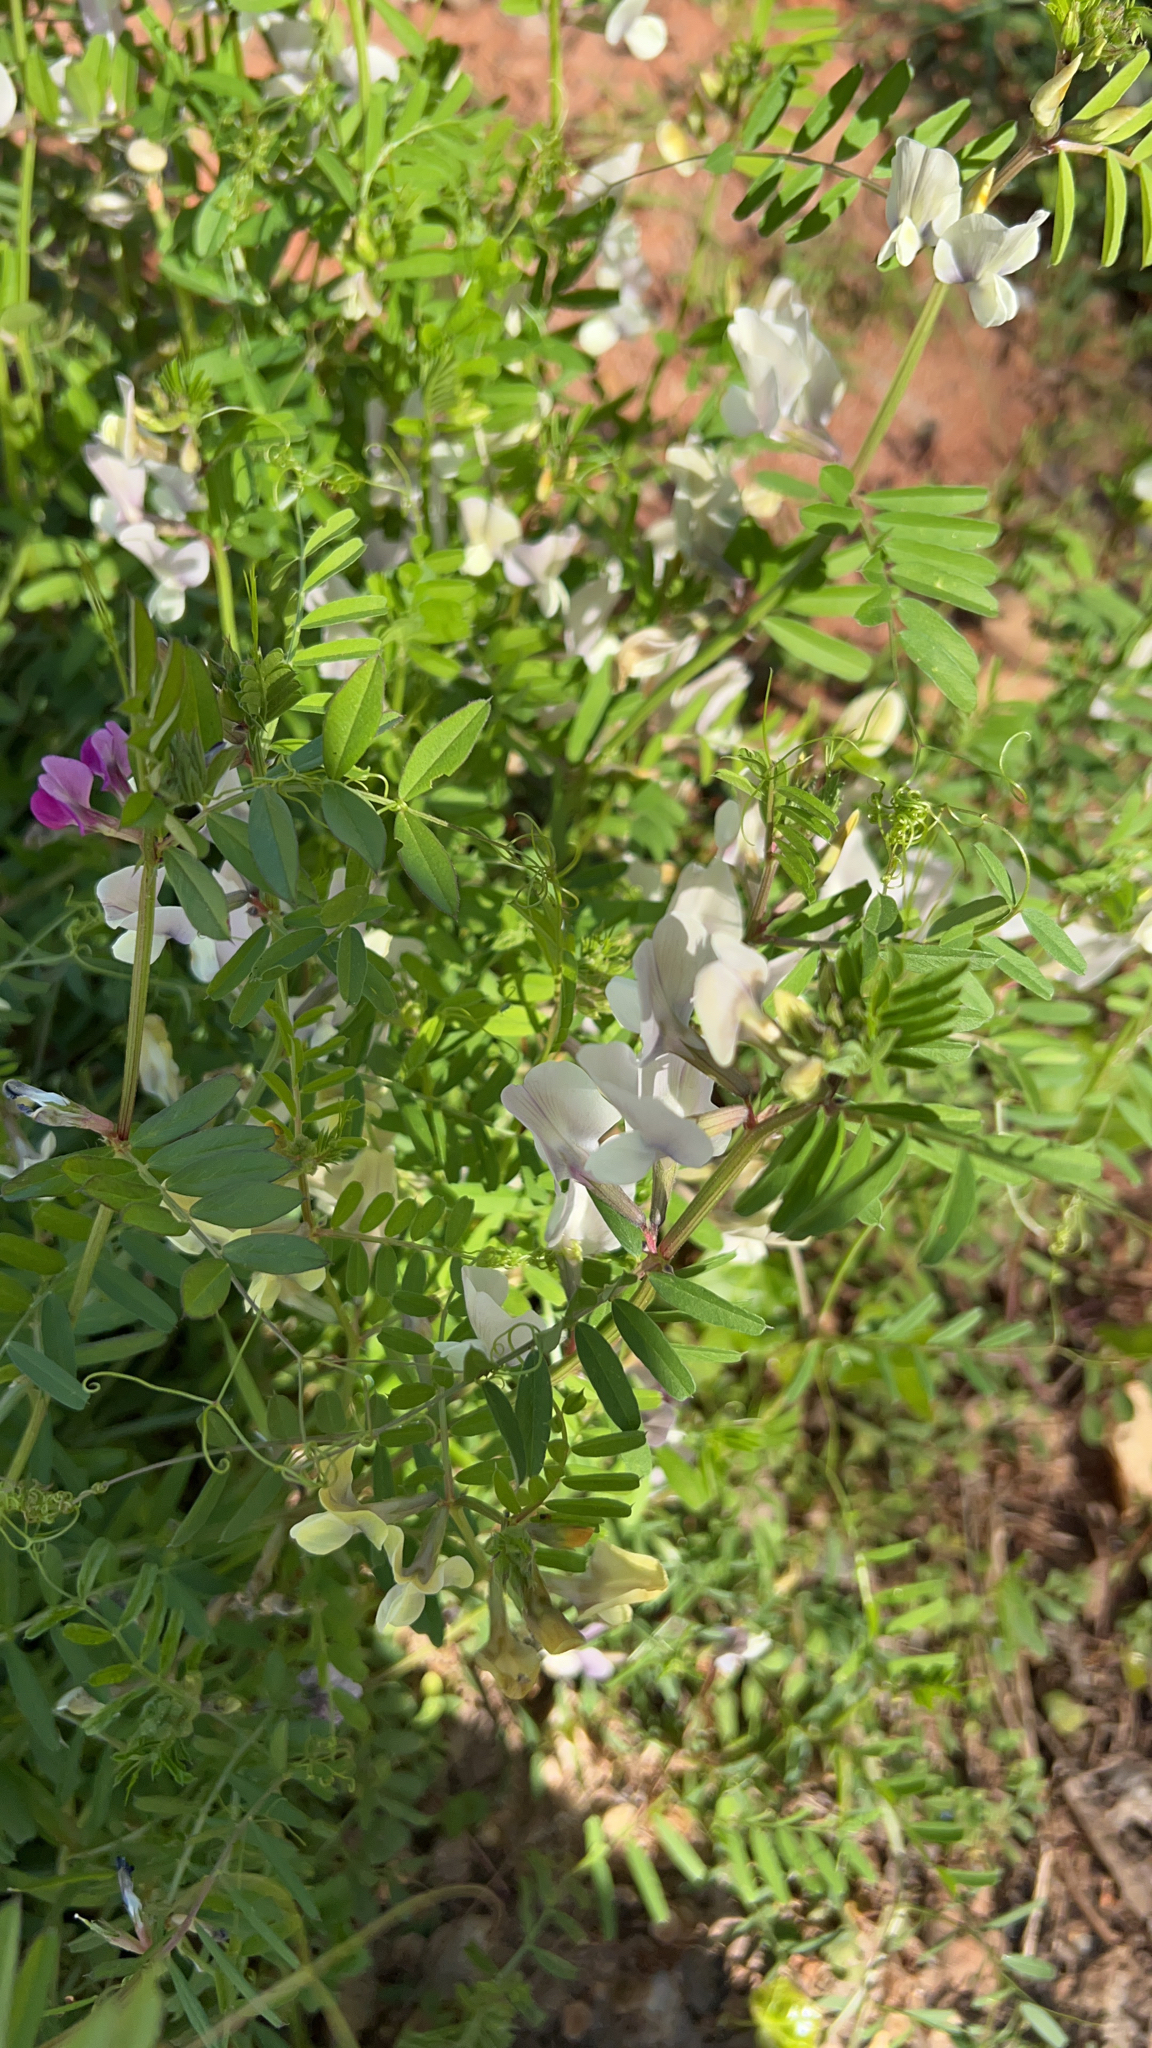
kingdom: Plantae
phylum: Tracheophyta
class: Magnoliopsida
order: Fabales
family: Fabaceae
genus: Vicia
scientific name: Vicia grandiflora
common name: Large yellow vetch
